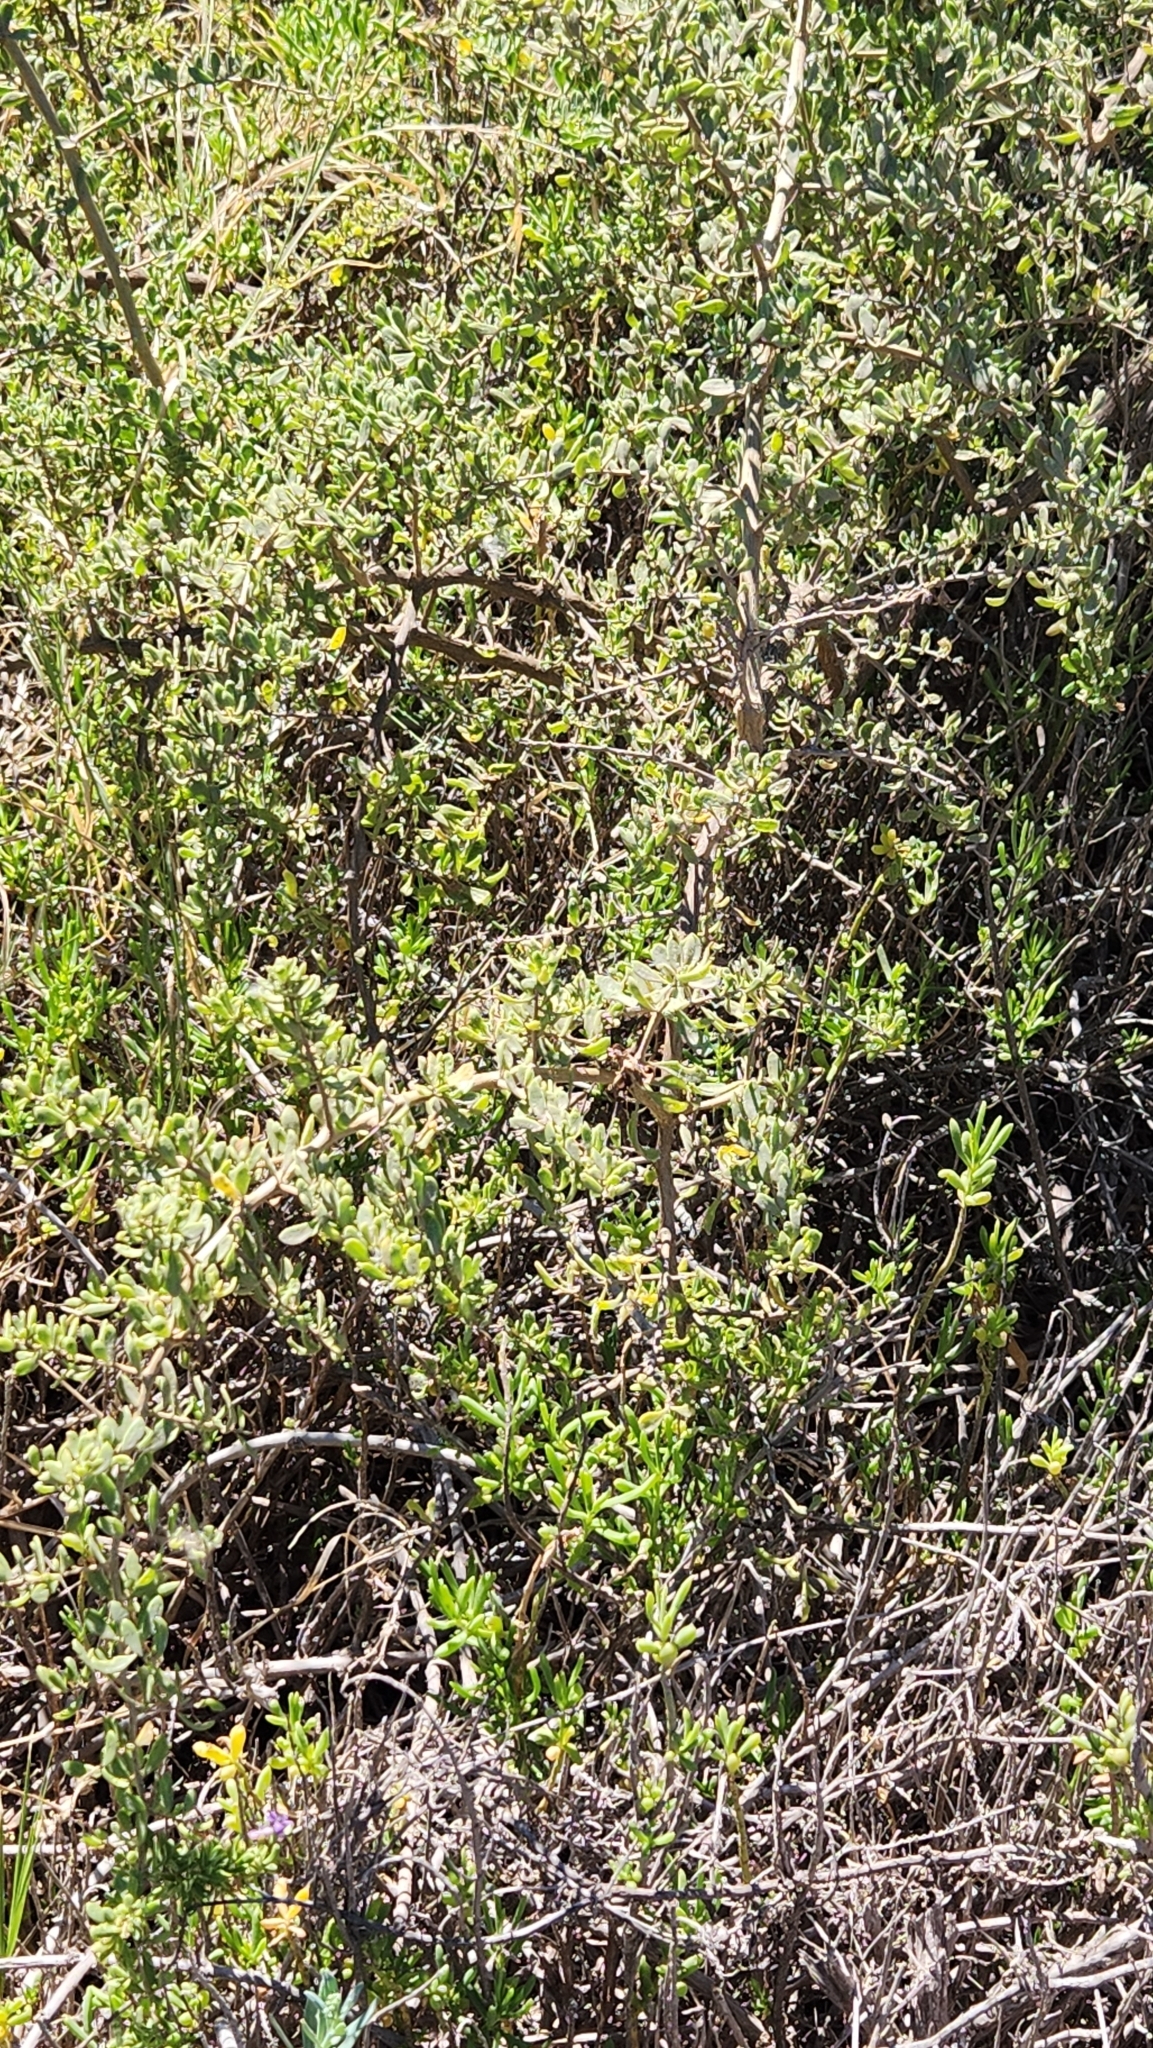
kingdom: Plantae
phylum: Tracheophyta
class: Magnoliopsida
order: Solanales
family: Solanaceae
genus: Lycium
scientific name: Lycium brevipes
